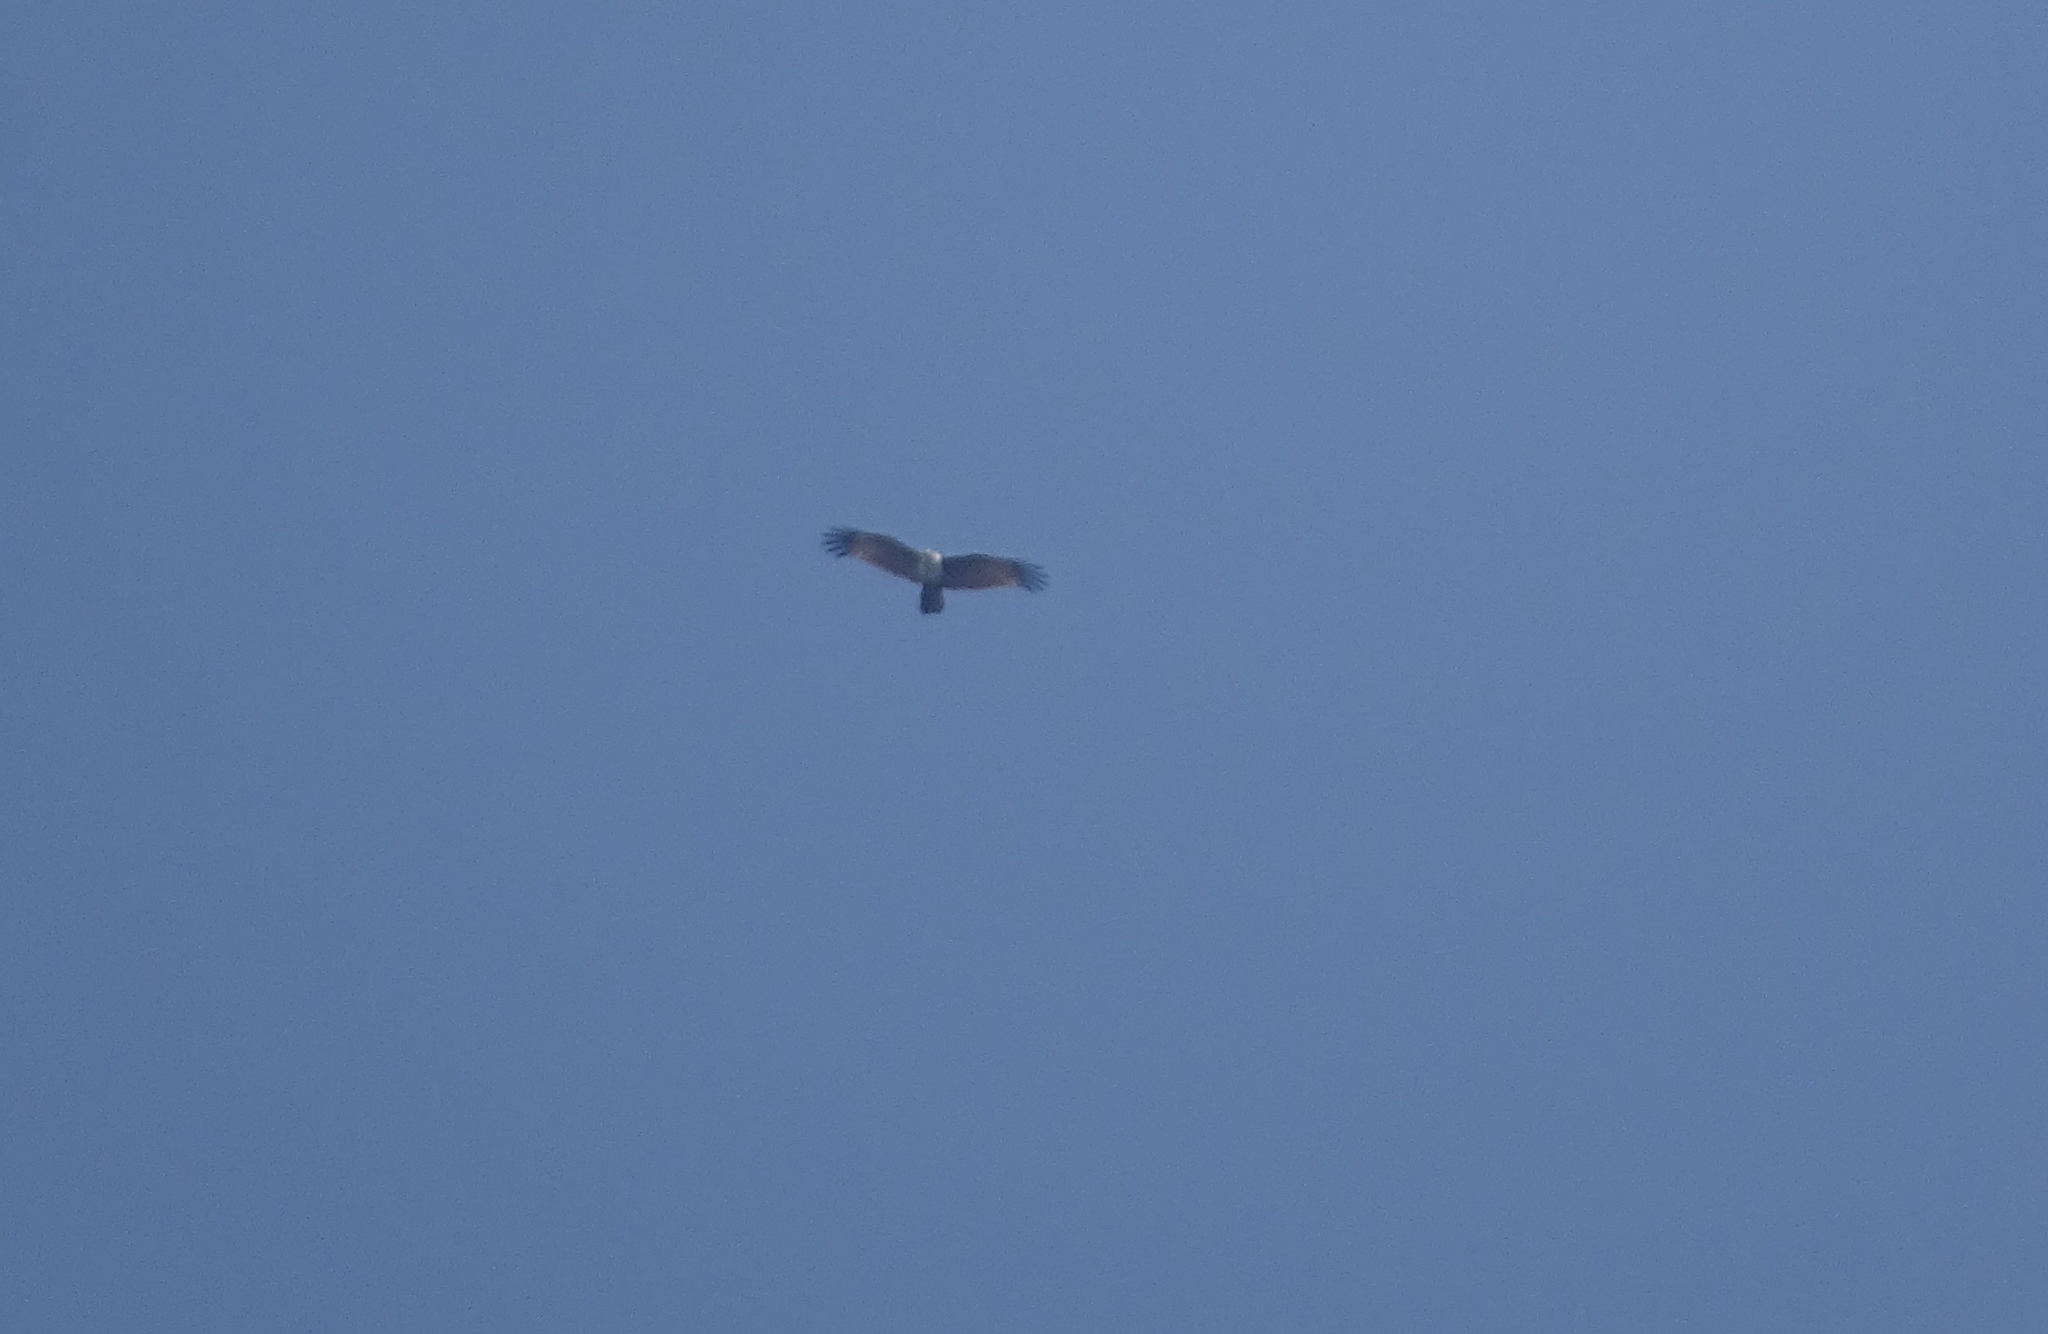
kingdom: Animalia
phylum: Chordata
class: Aves
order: Accipitriformes
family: Accipitridae
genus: Haliastur
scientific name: Haliastur indus
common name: Brahminy kite
